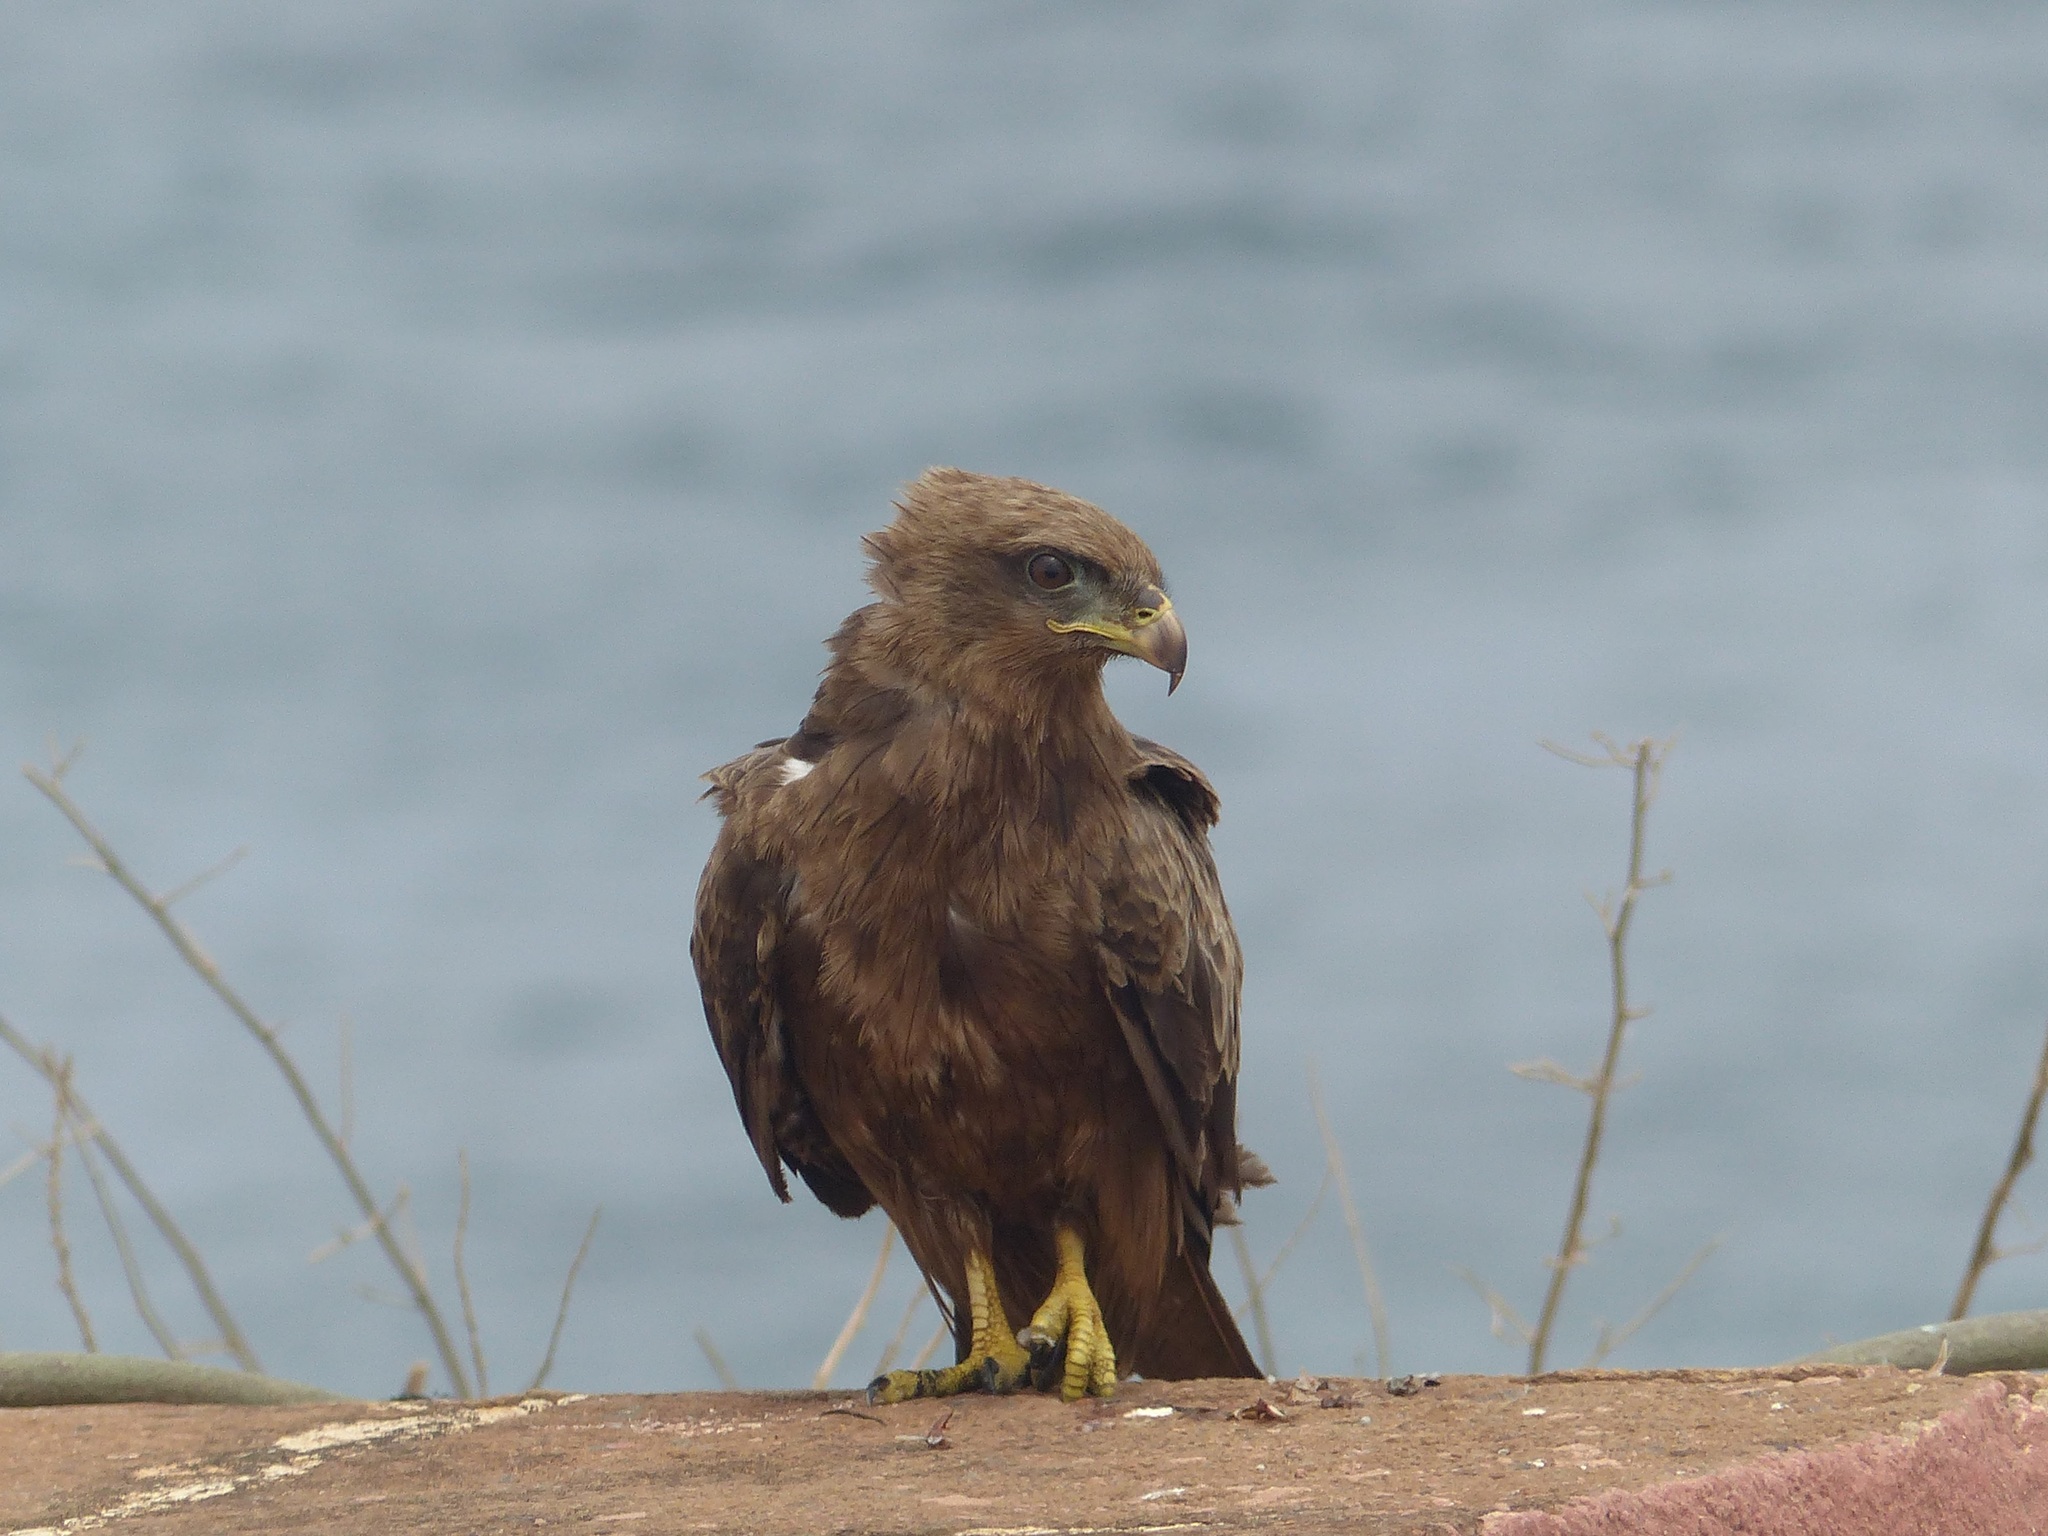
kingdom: Animalia
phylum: Chordata
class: Aves
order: Accipitriformes
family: Accipitridae
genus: Milvus
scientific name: Milvus migrans
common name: Black kite
